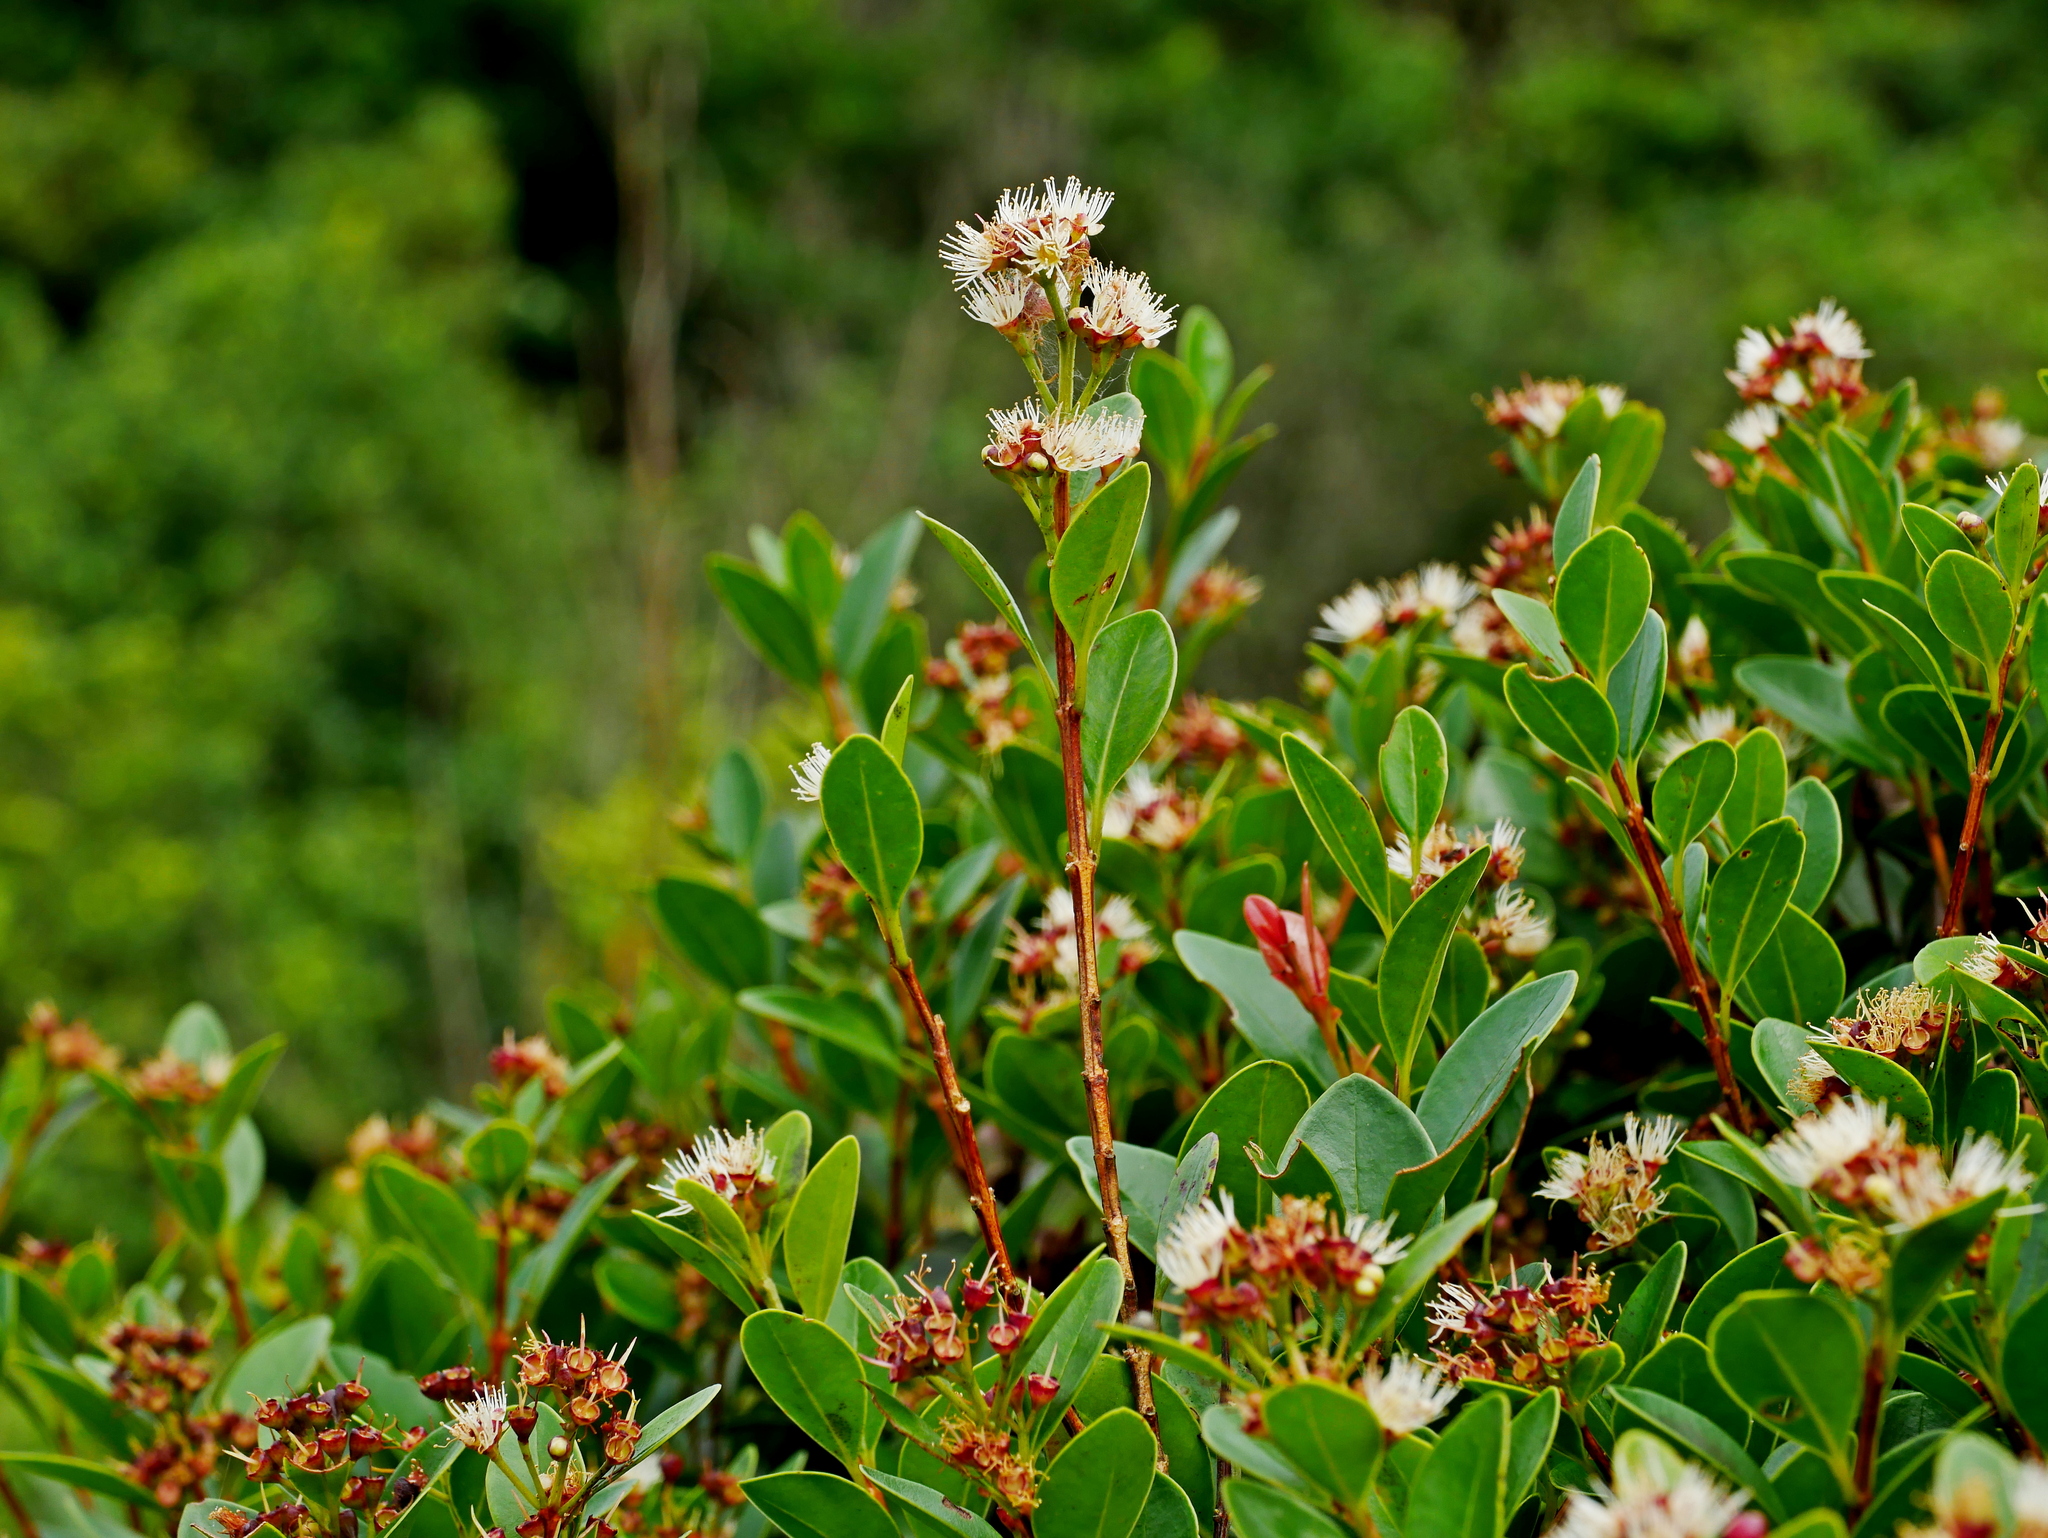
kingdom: Plantae
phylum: Tracheophyta
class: Magnoliopsida
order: Myrtales
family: Myrtaceae
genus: Syzygium
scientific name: Syzygium elliptifolium
